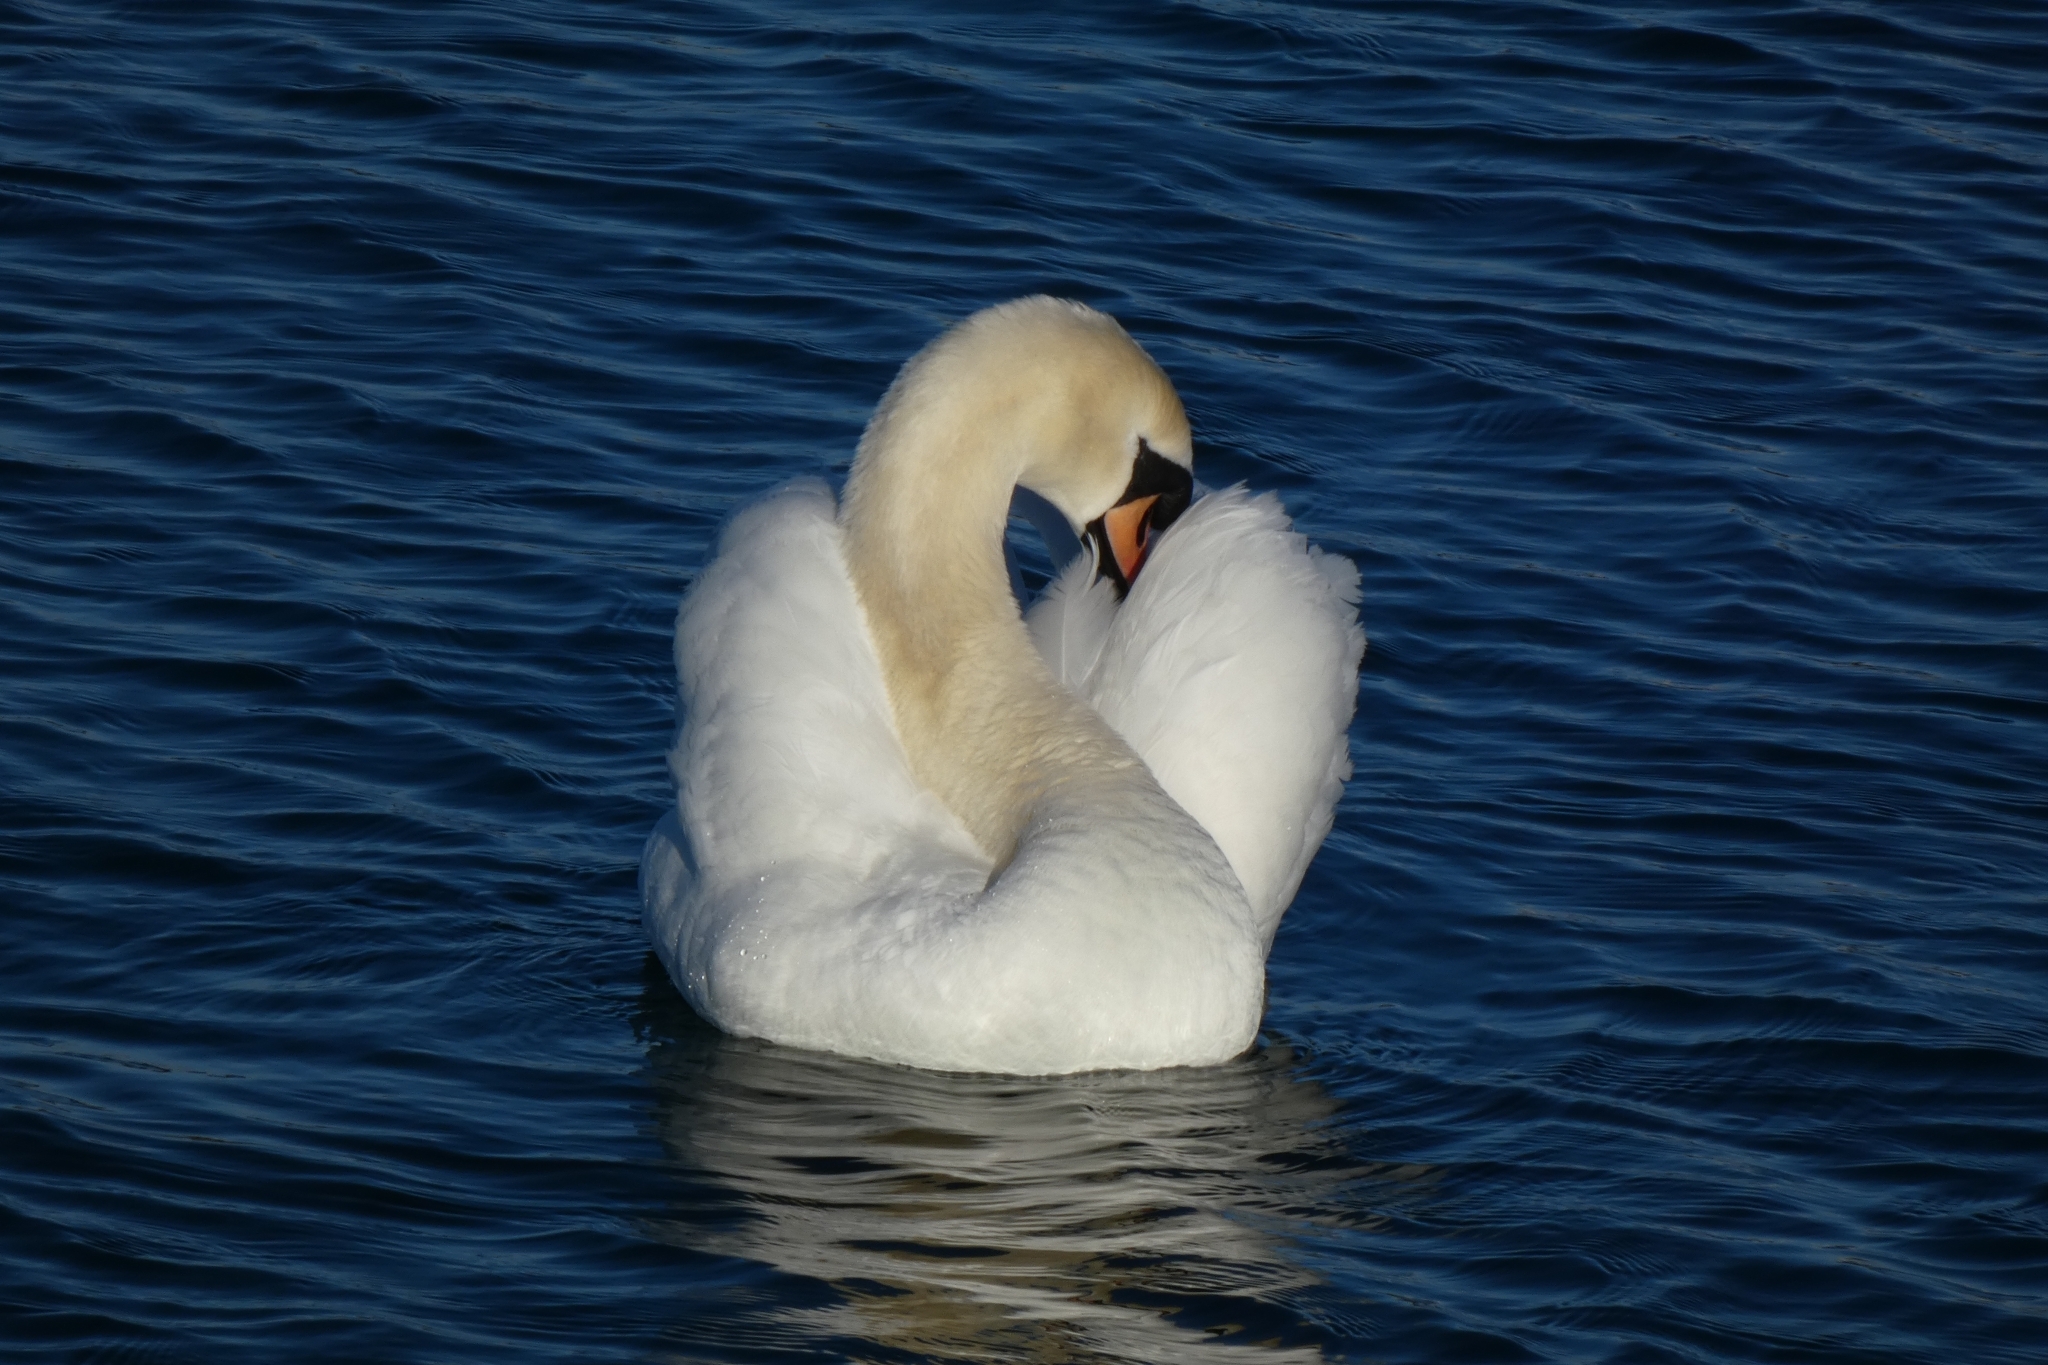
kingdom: Animalia
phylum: Chordata
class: Aves
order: Anseriformes
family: Anatidae
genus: Cygnus
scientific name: Cygnus olor
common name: Mute swan
